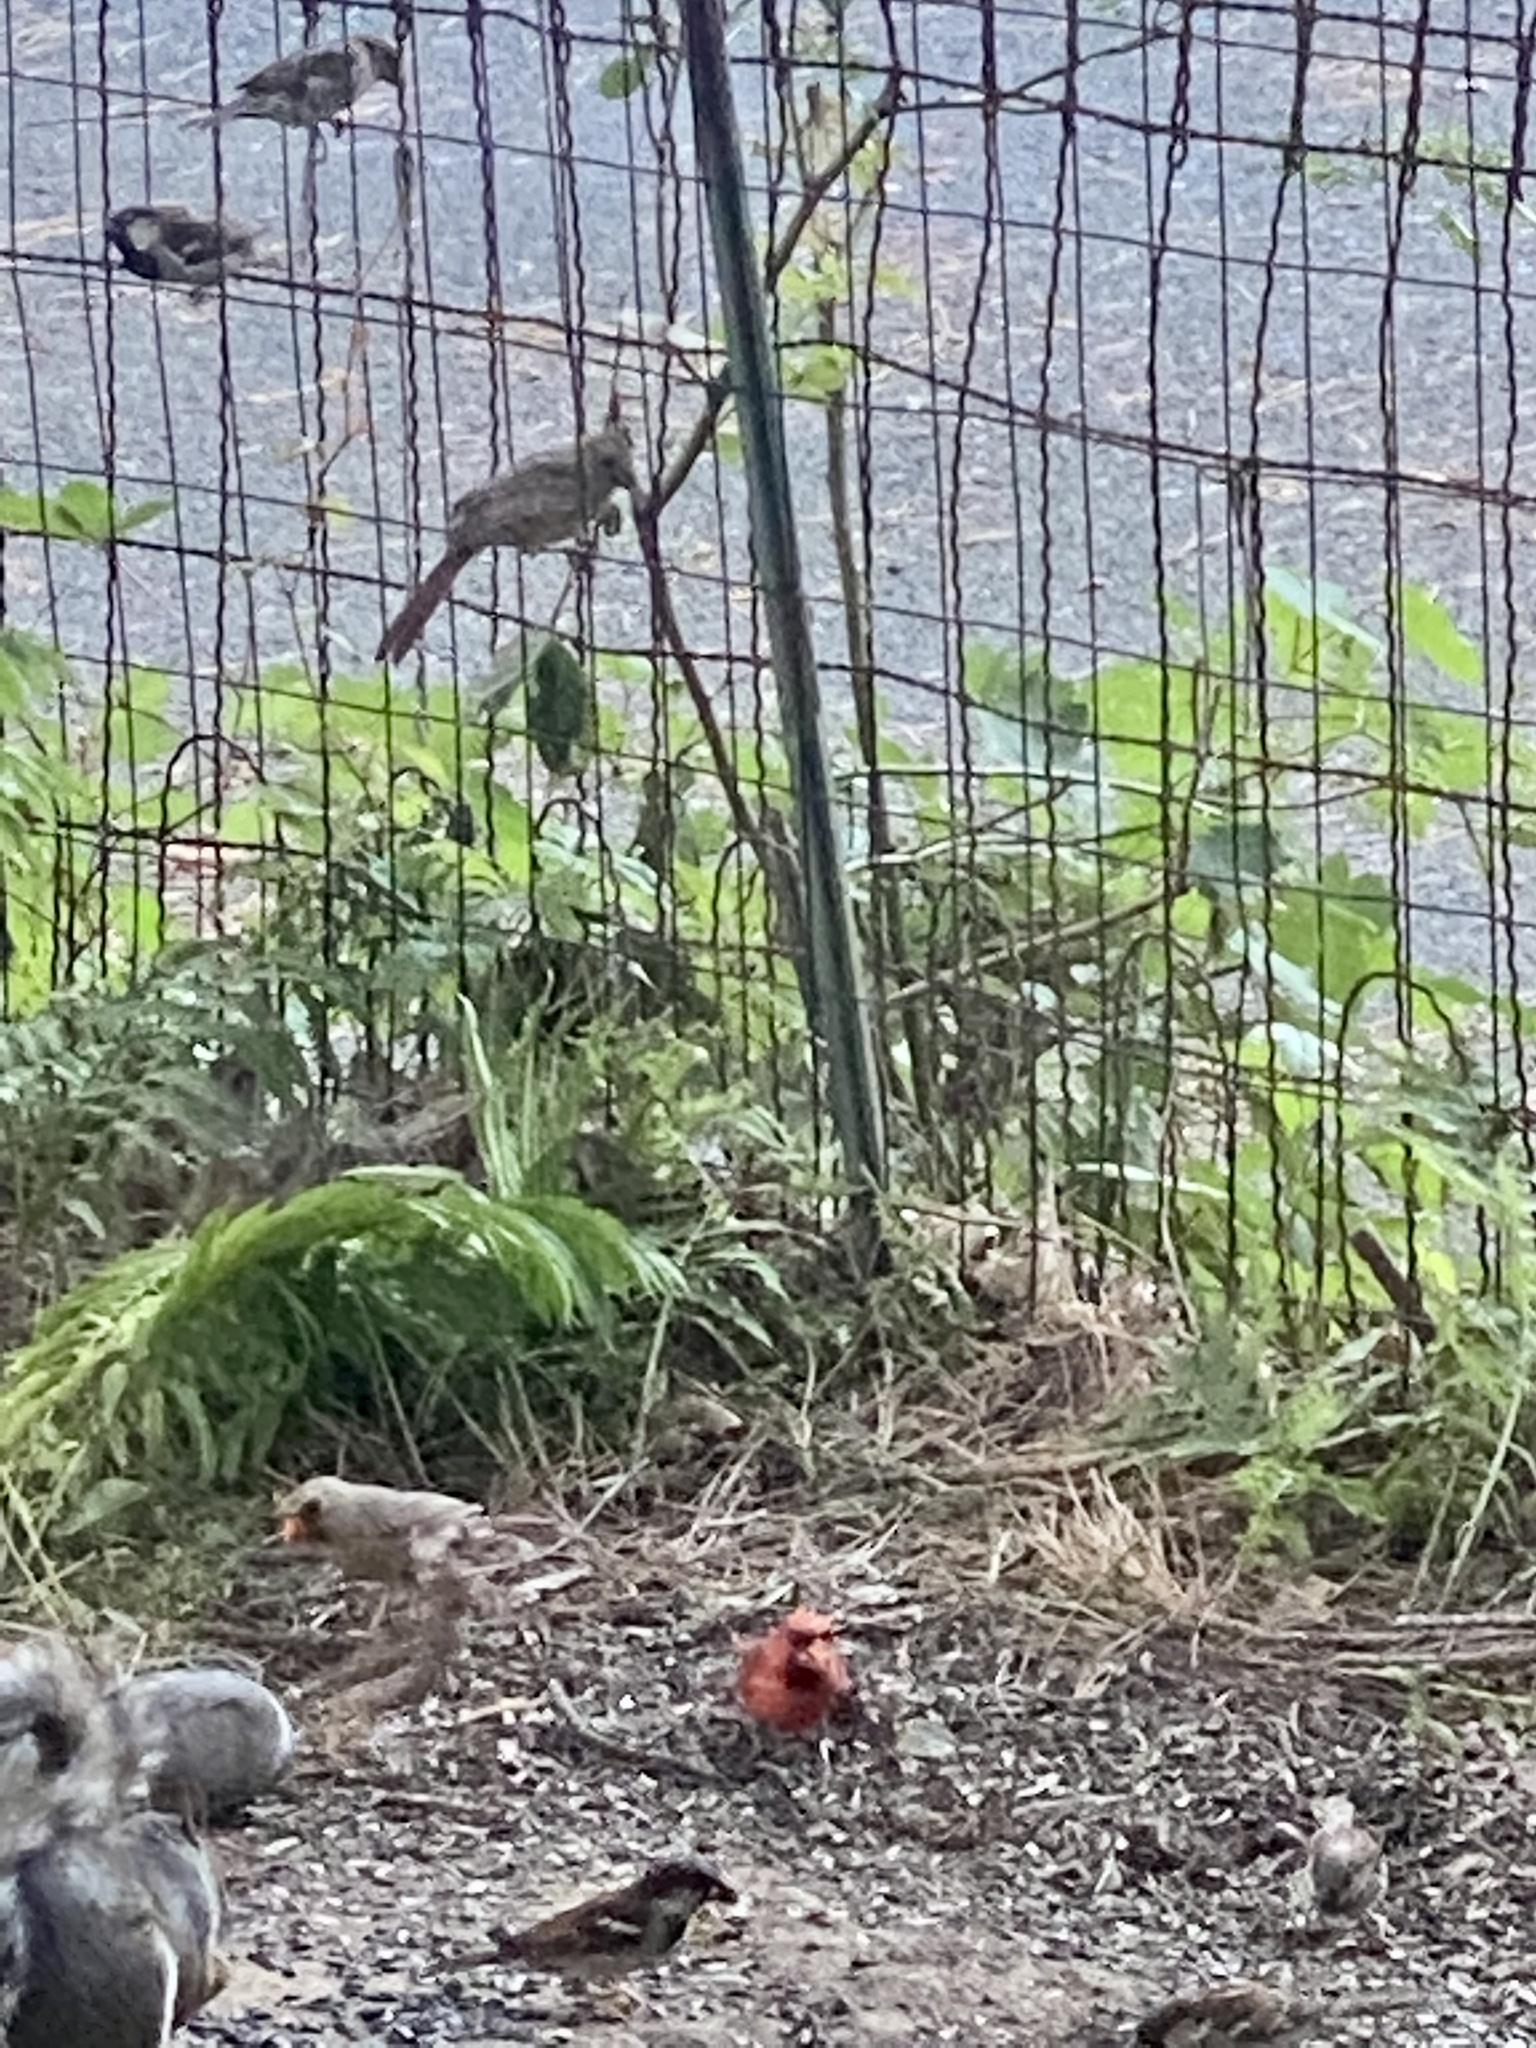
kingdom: Animalia
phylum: Chordata
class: Aves
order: Passeriformes
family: Cardinalidae
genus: Cardinalis
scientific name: Cardinalis cardinalis
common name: Northern cardinal
